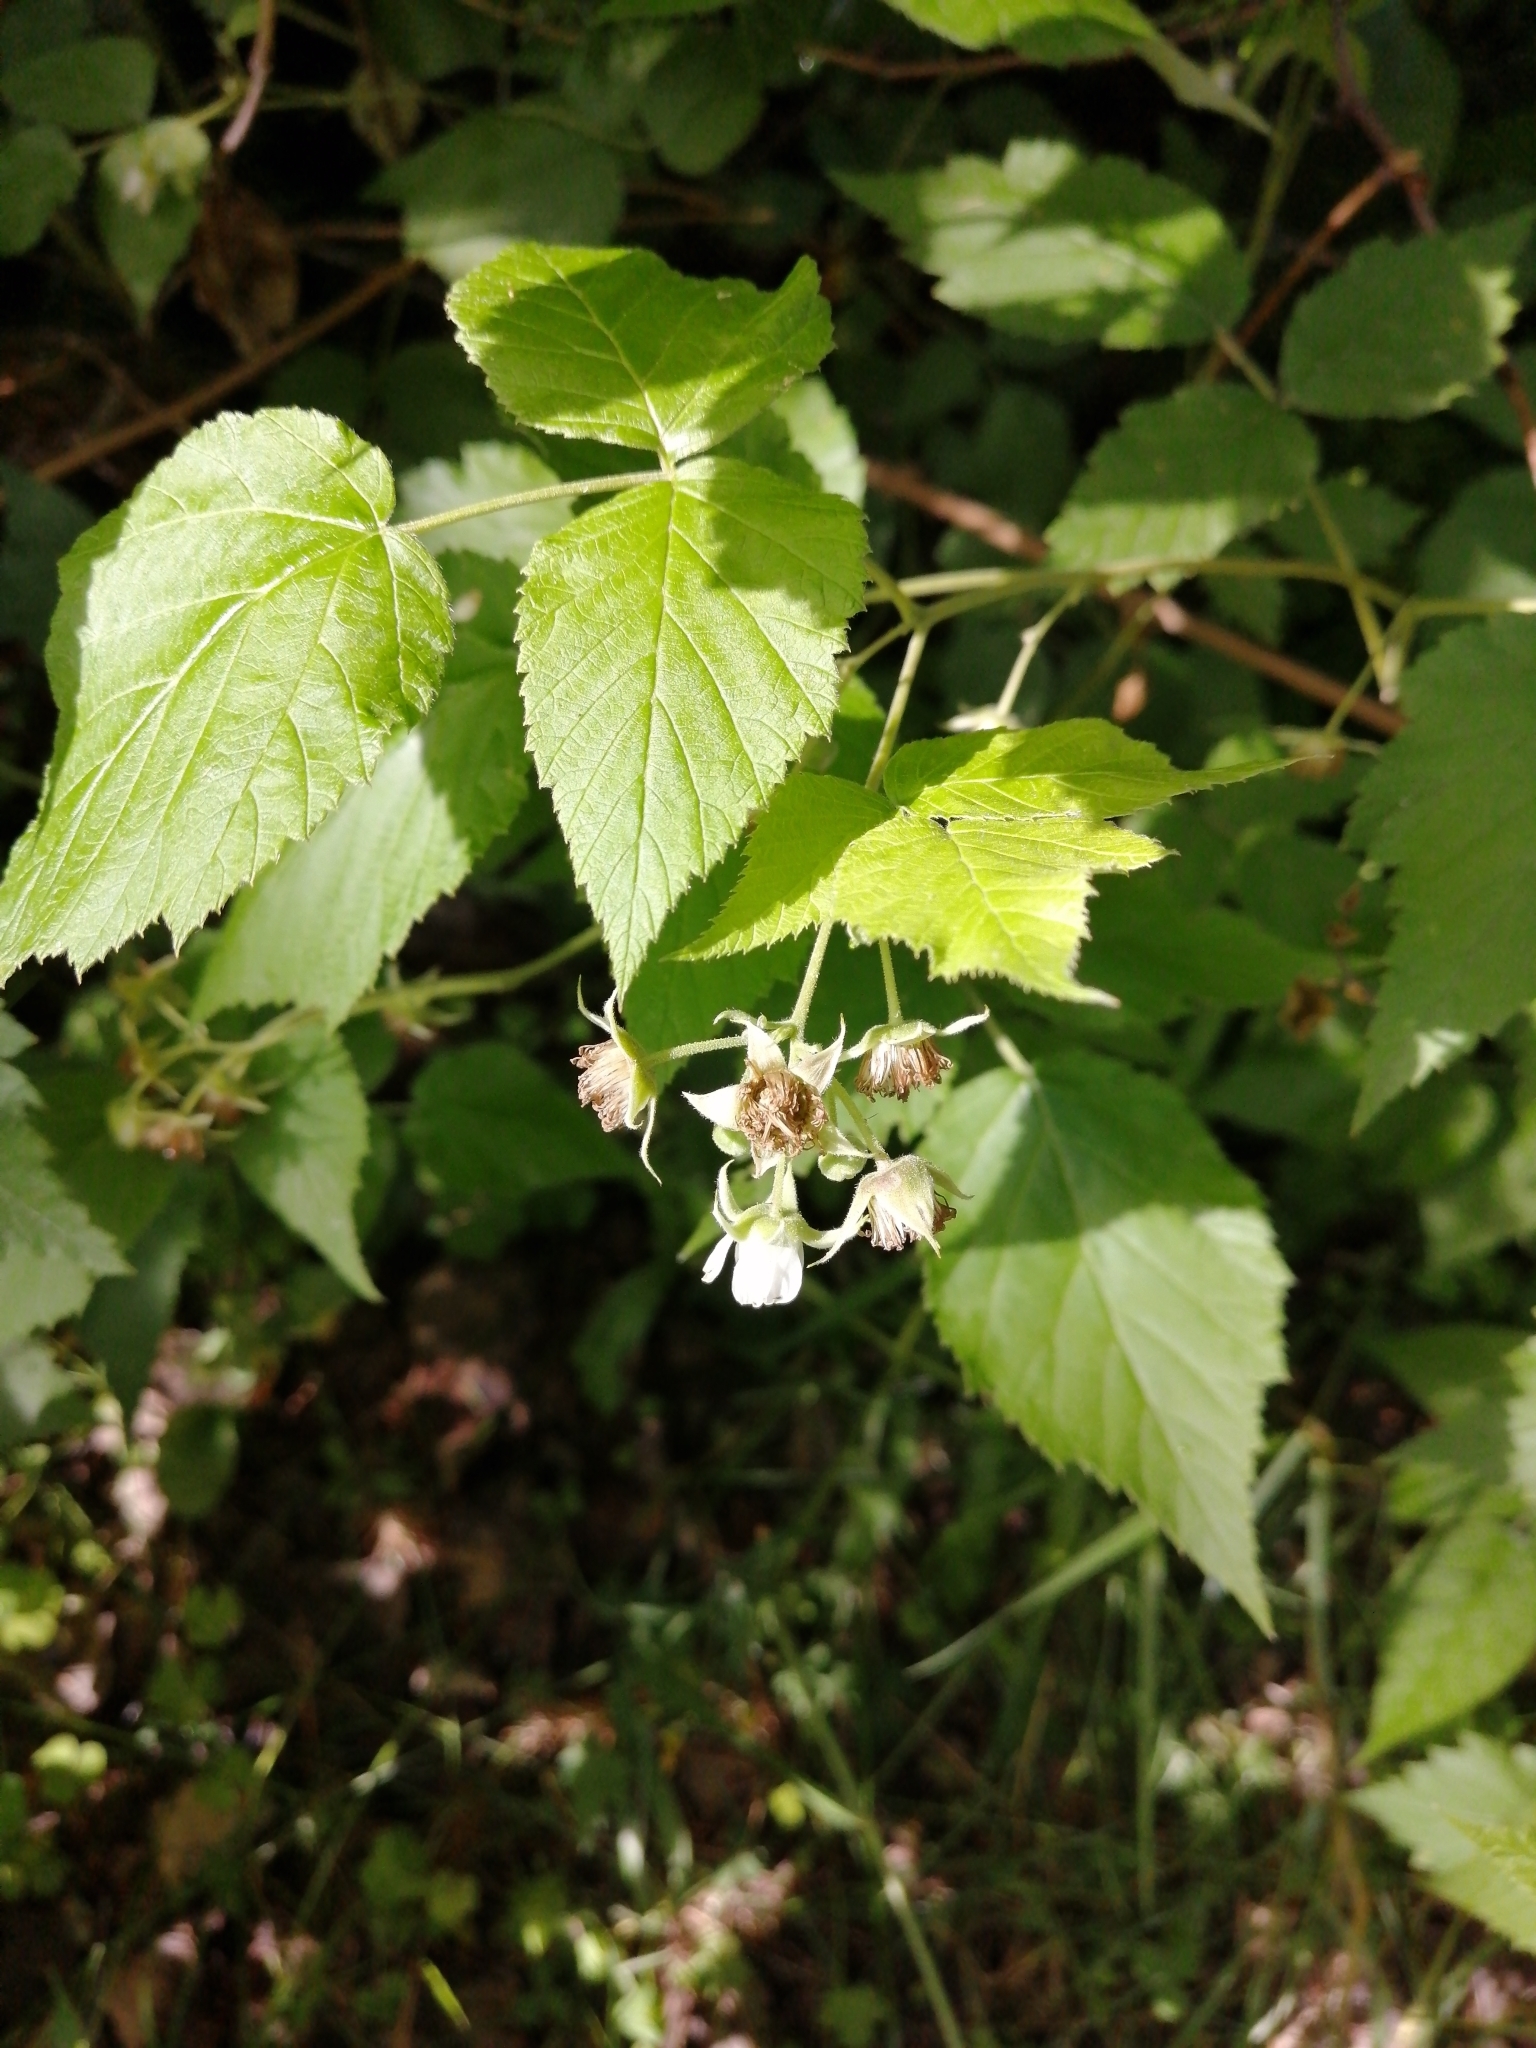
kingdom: Plantae
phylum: Tracheophyta
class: Magnoliopsida
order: Rosales
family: Rosaceae
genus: Rubus
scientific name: Rubus idaeus
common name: Raspberry
